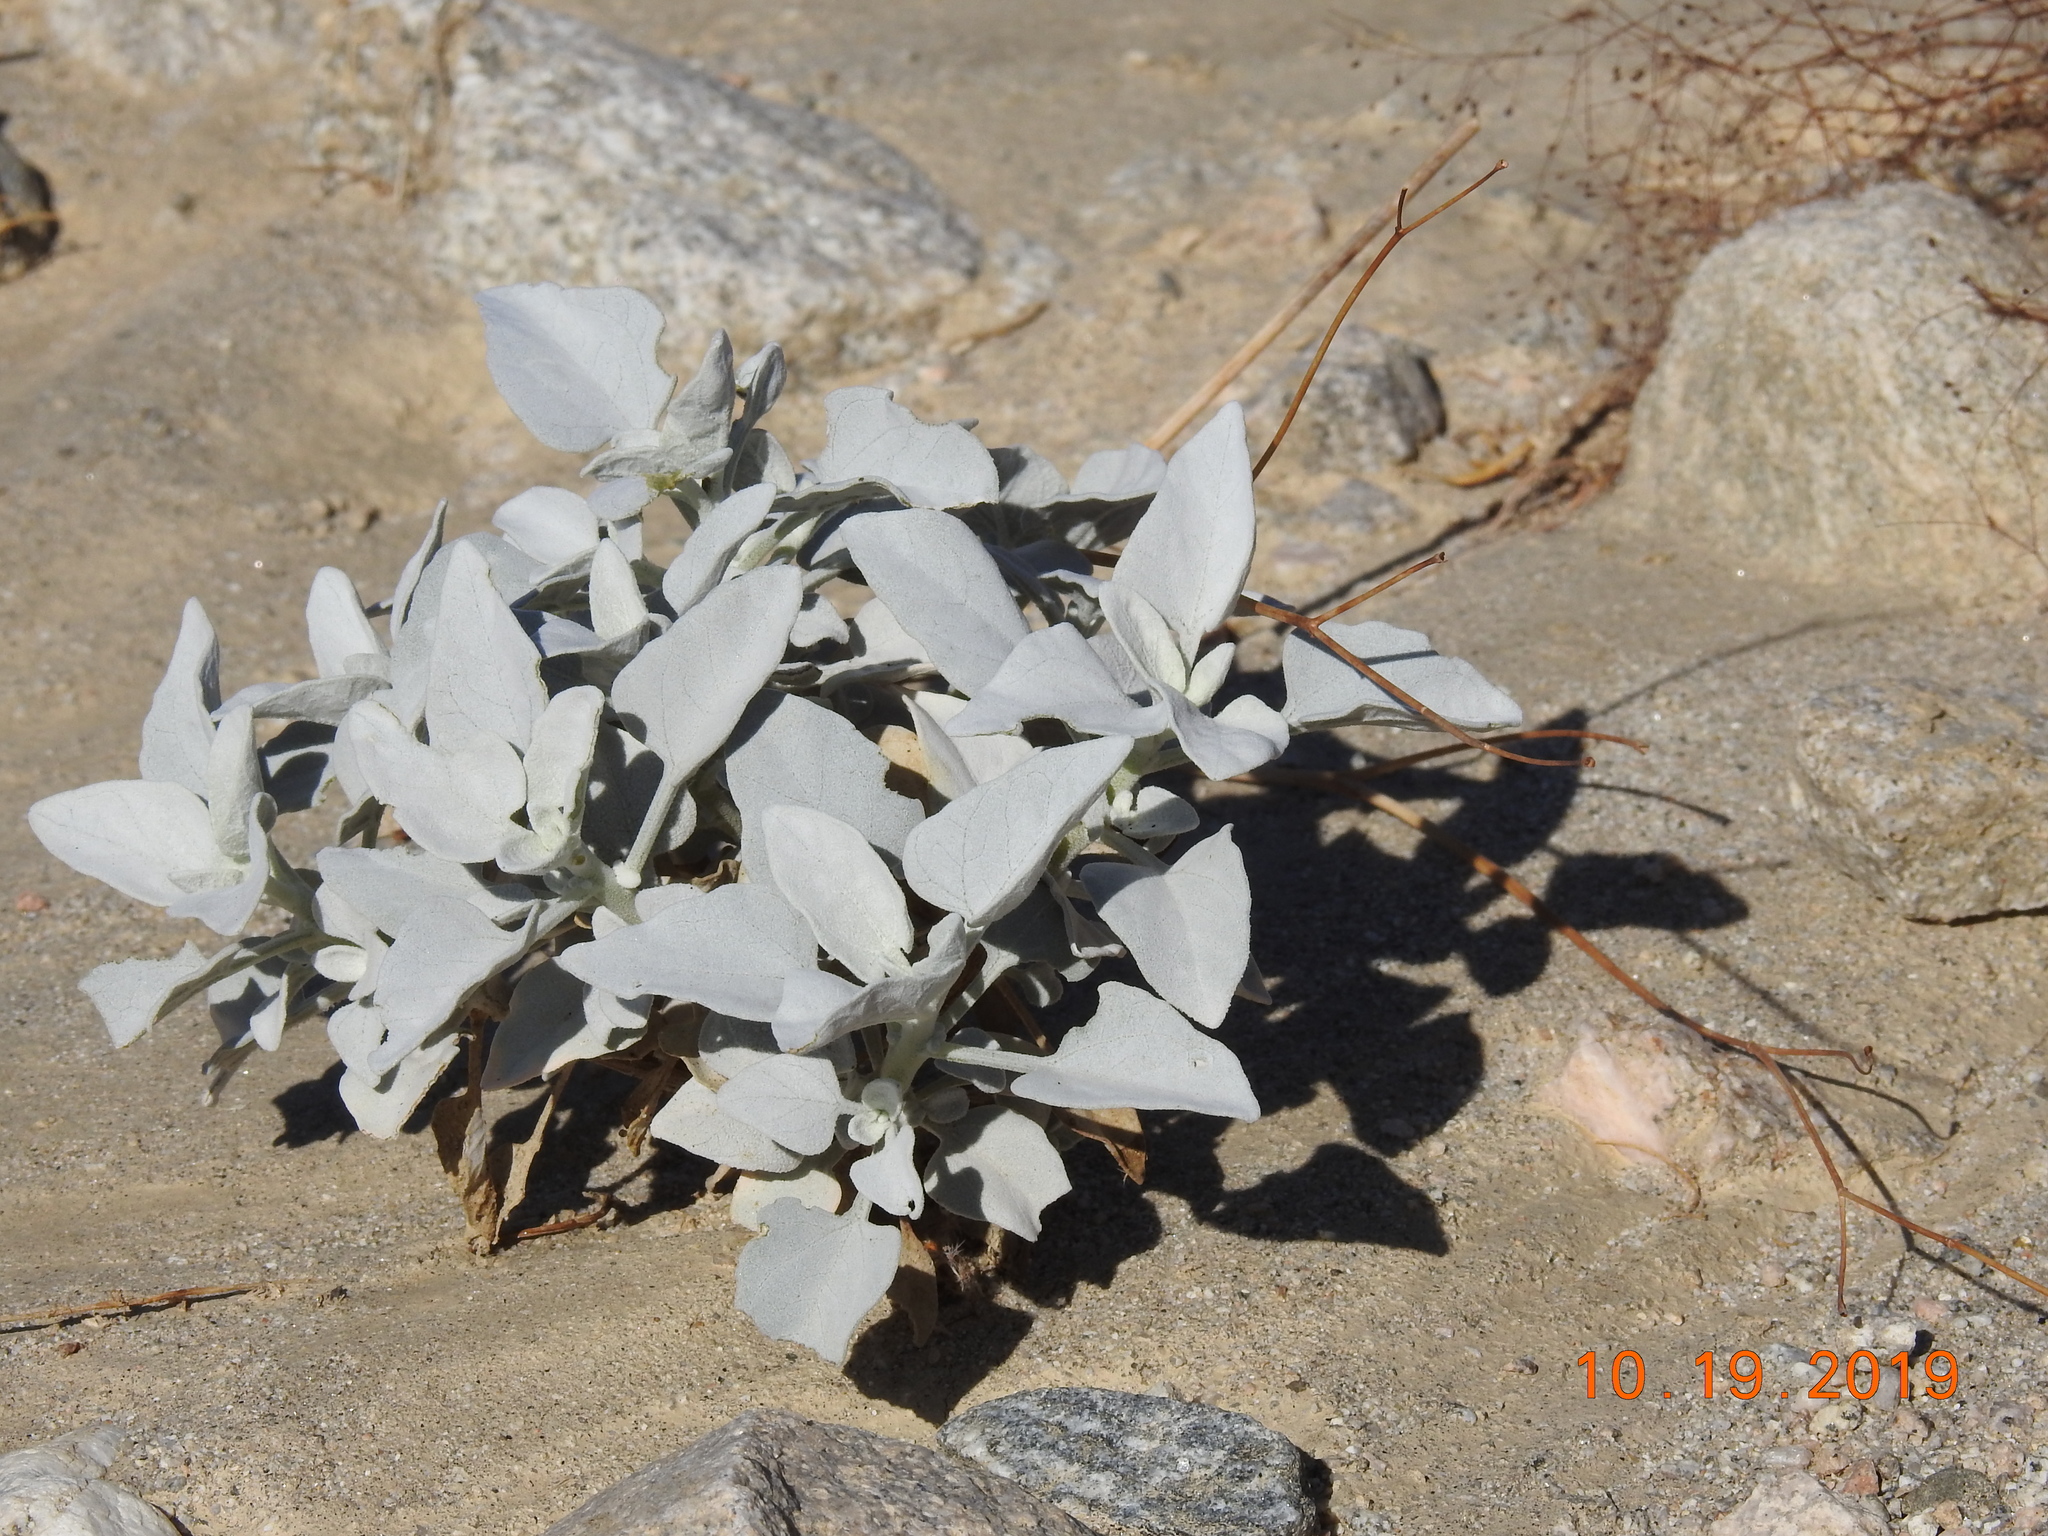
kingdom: Plantae
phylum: Tracheophyta
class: Magnoliopsida
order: Asterales
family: Asteraceae
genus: Encelia
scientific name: Encelia farinosa
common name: Brittlebush
